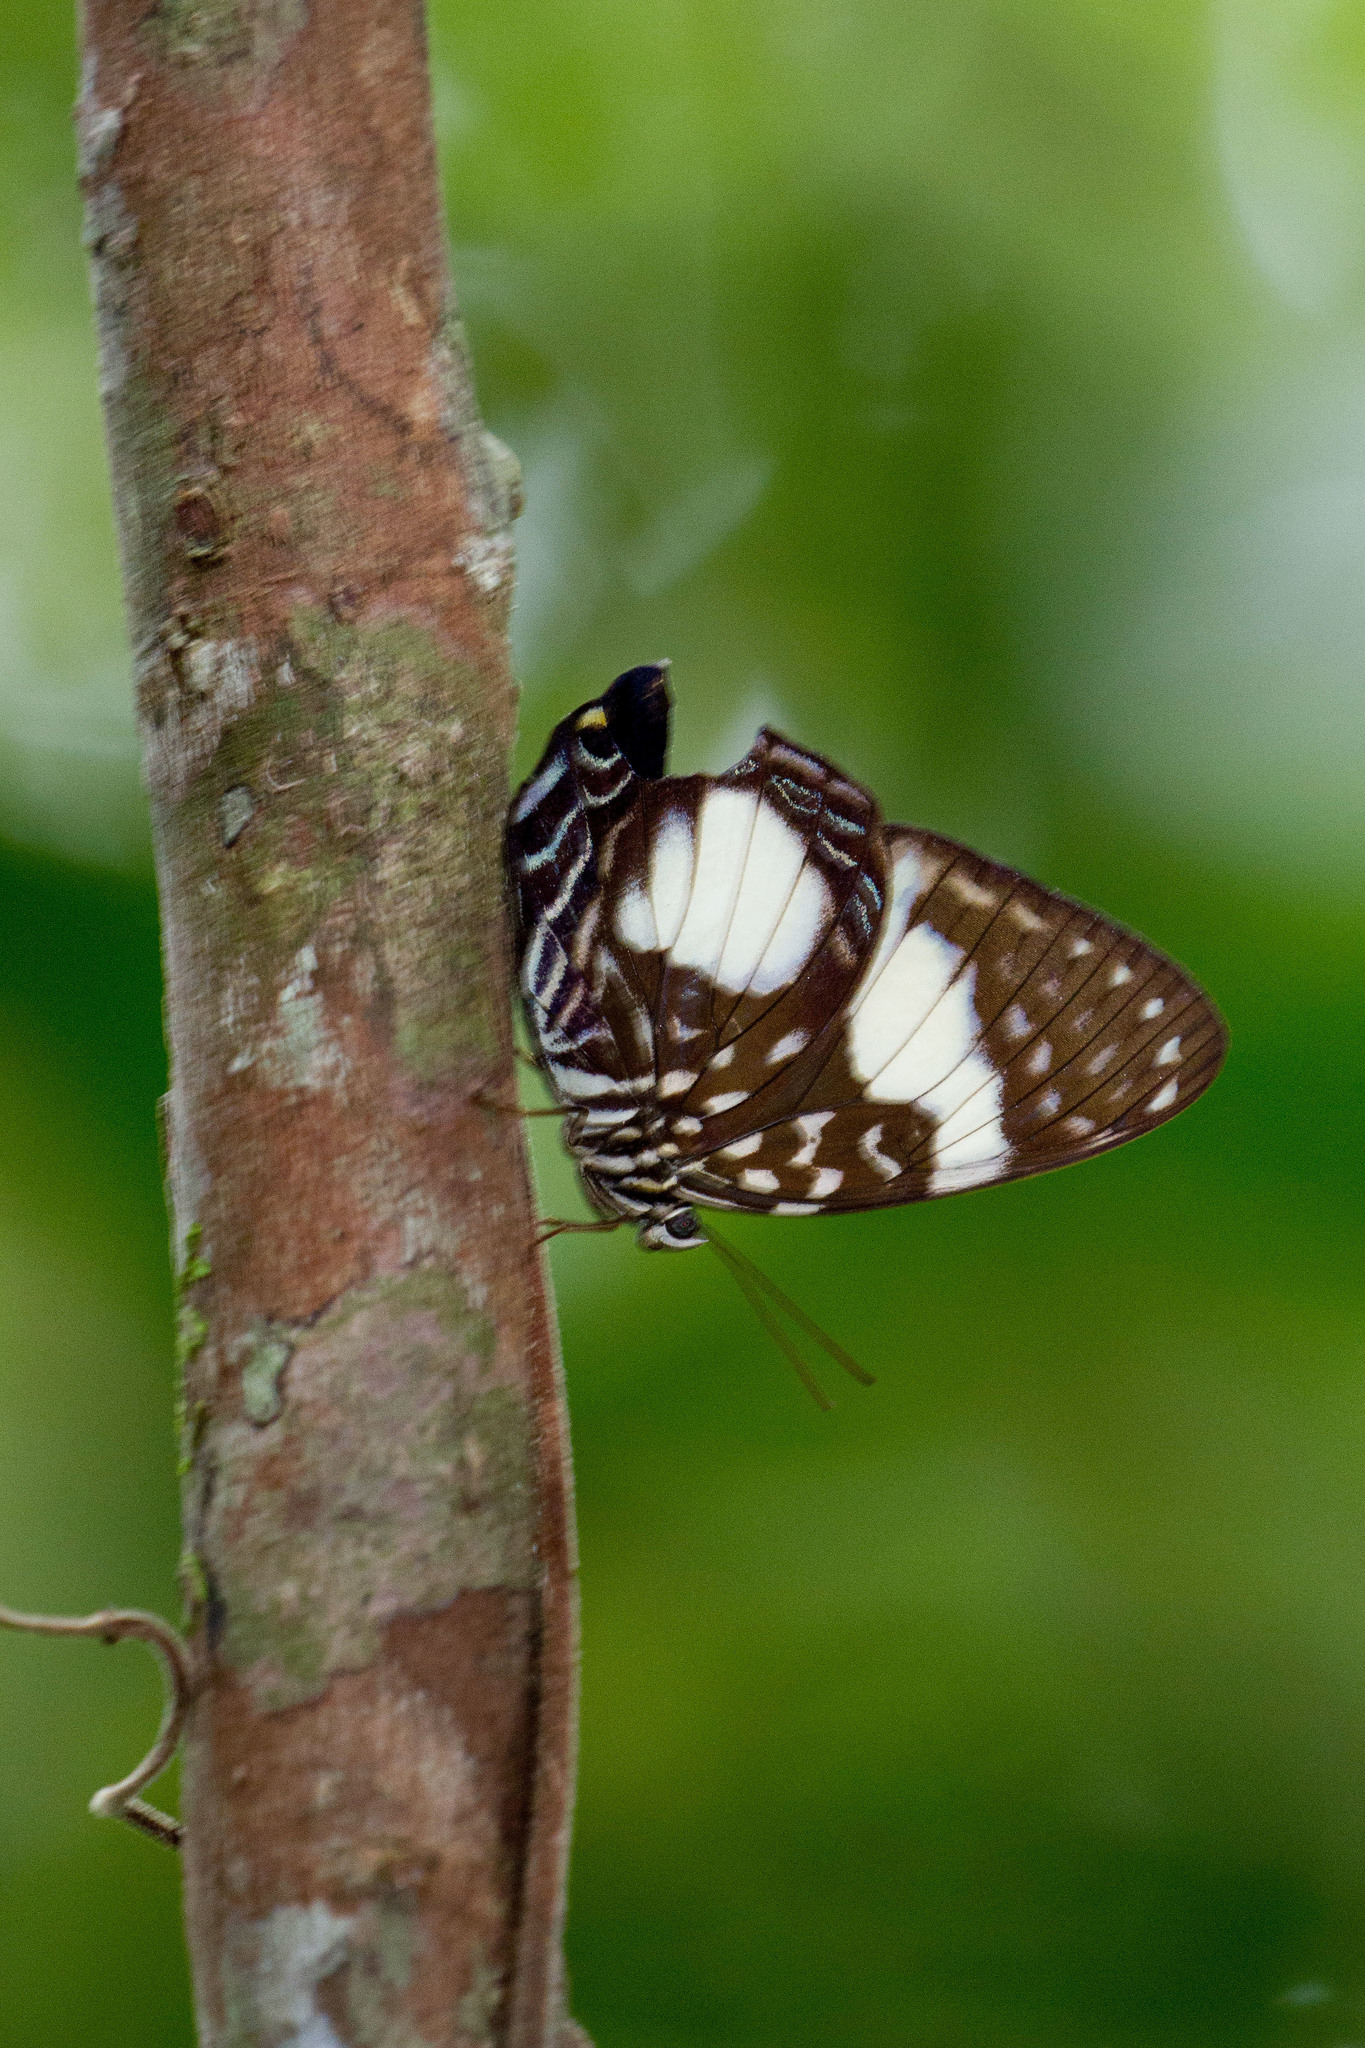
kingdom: Animalia
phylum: Arthropoda
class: Insecta
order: Lepidoptera
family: Nymphalidae
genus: Prothoe
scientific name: Prothoe australis
